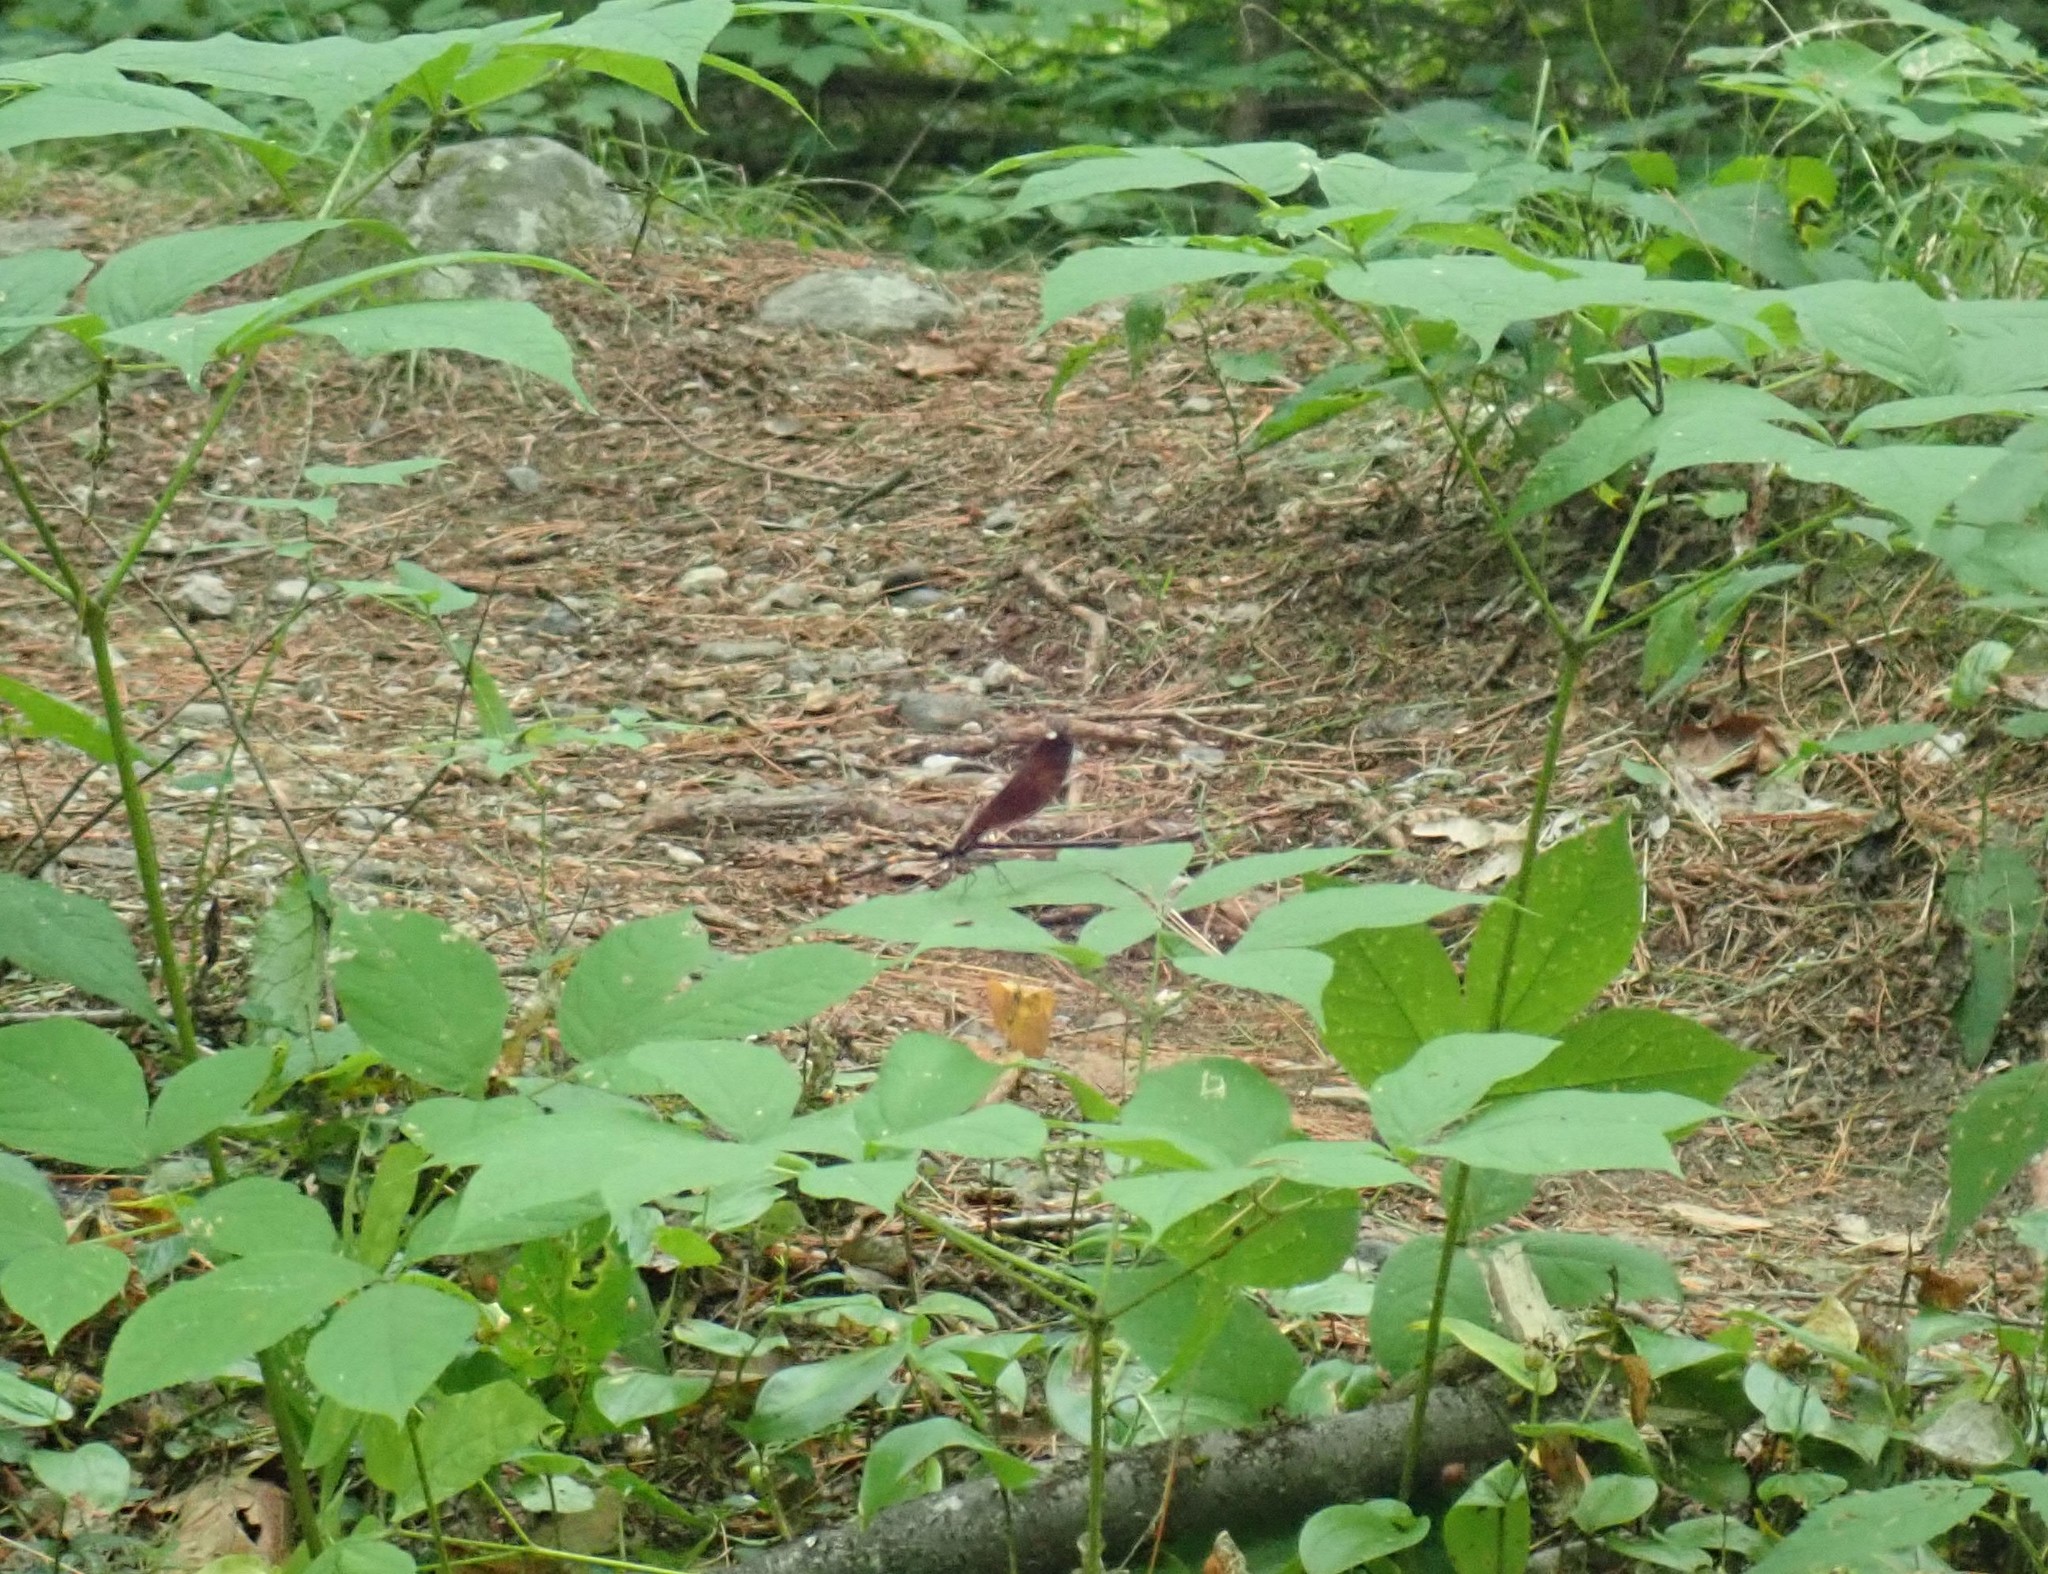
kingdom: Animalia
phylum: Arthropoda
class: Insecta
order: Odonata
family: Calopterygidae
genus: Calopteryx
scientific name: Calopteryx maculata
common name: Ebony jewelwing
